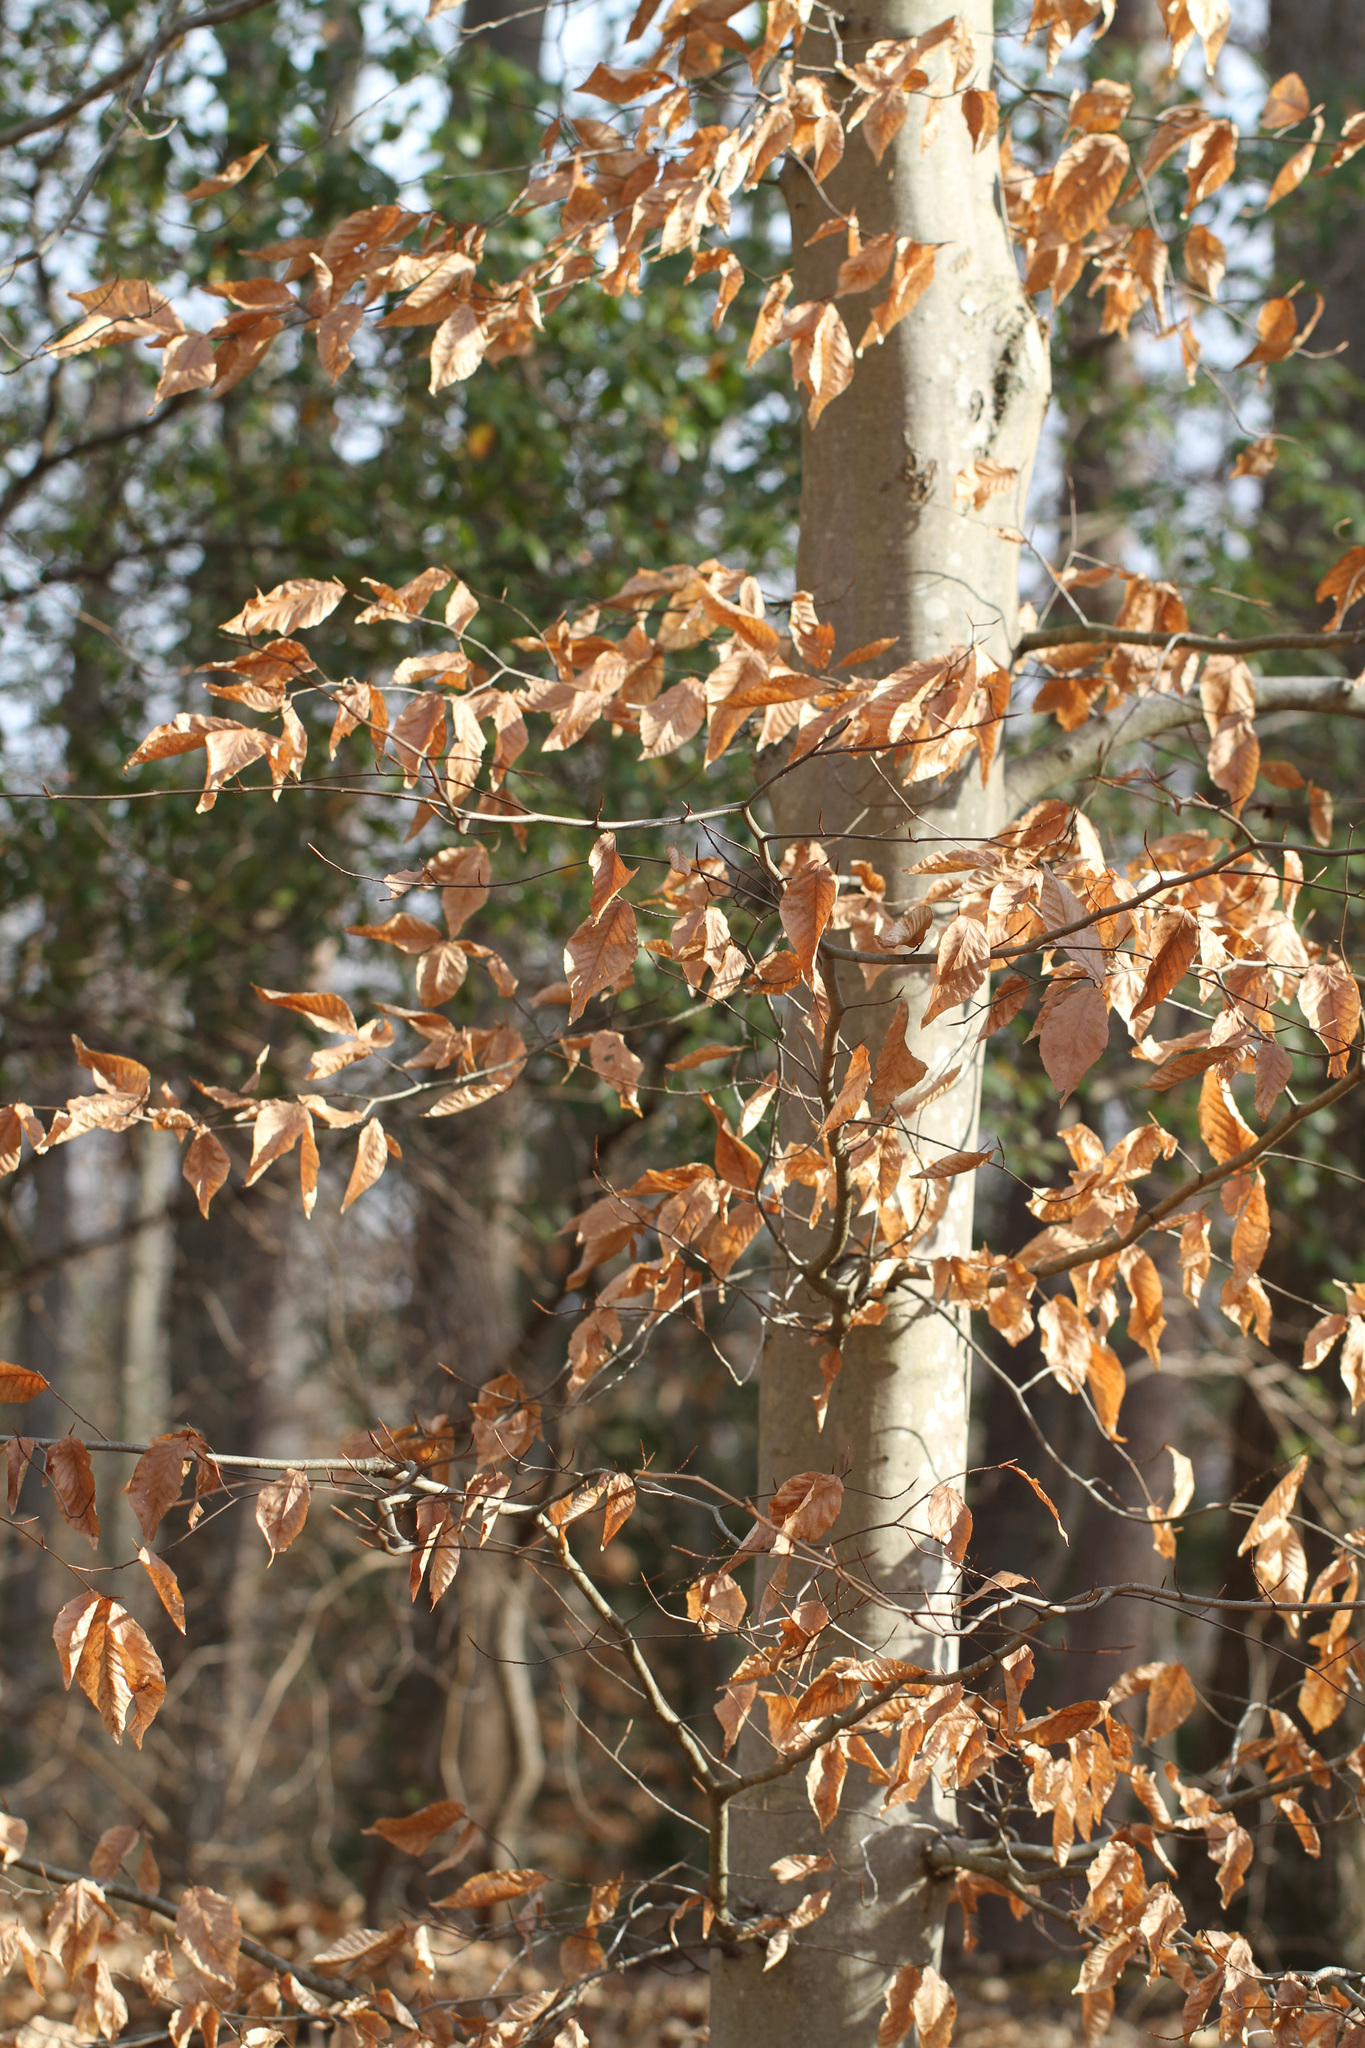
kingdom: Plantae
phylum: Tracheophyta
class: Magnoliopsida
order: Fagales
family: Fagaceae
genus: Fagus
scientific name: Fagus grandifolia
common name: American beech
